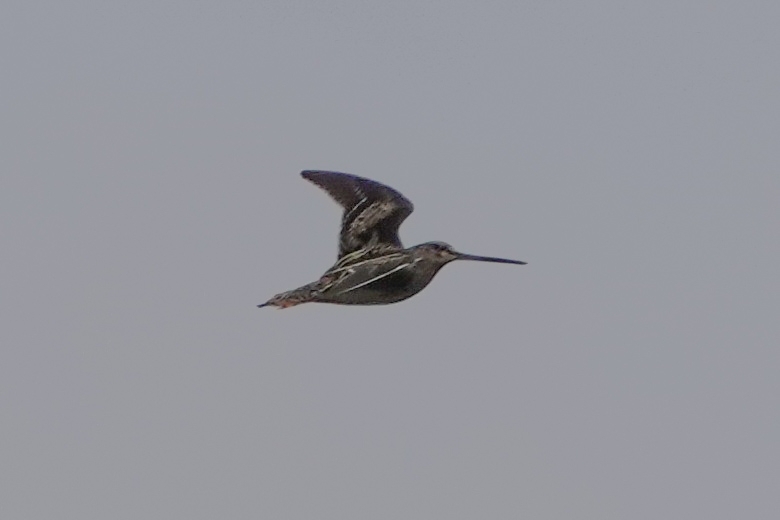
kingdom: Animalia
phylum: Chordata
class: Aves
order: Charadriiformes
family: Scolopacidae
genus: Gallinago
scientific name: Gallinago gallinago
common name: Common snipe
